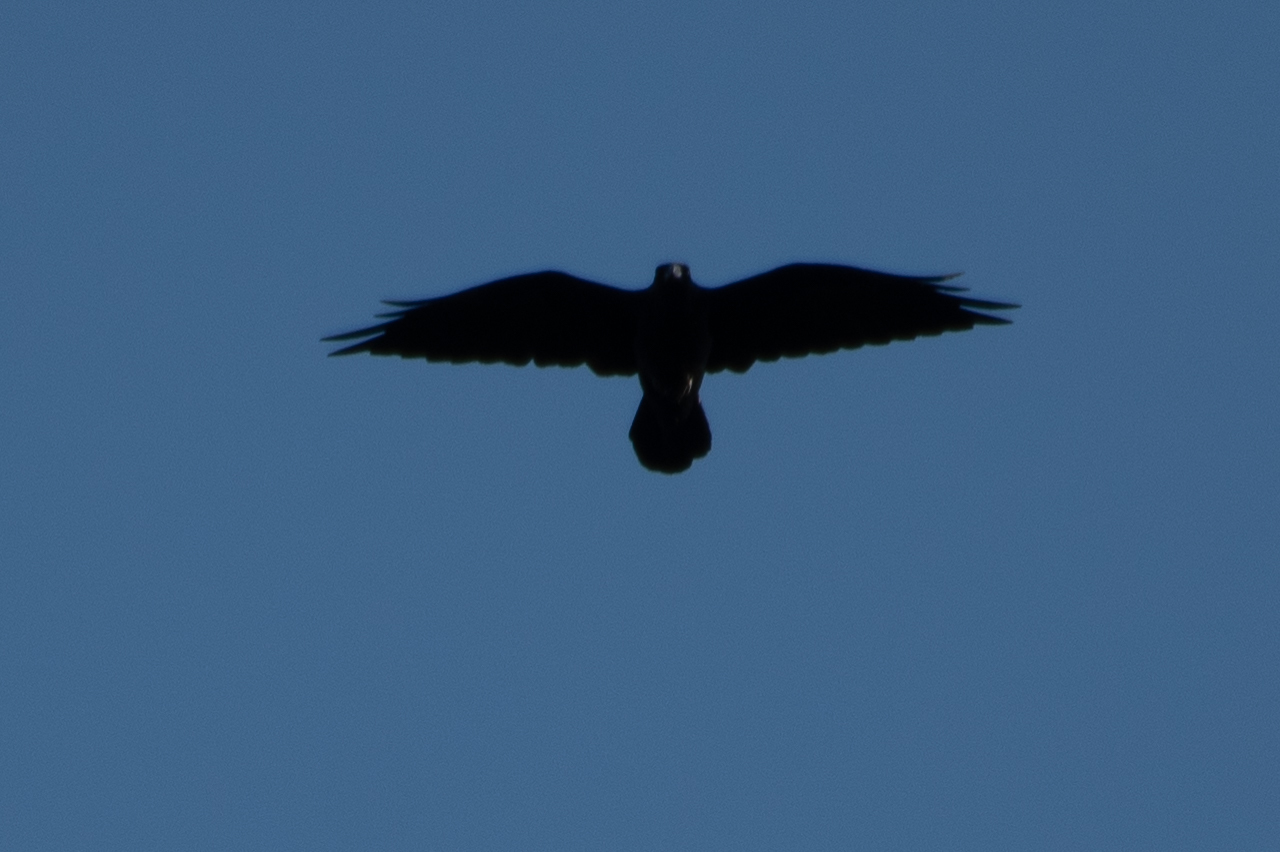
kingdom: Animalia
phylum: Chordata
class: Aves
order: Passeriformes
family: Corvidae
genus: Corvus
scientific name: Corvus corax
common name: Common raven
